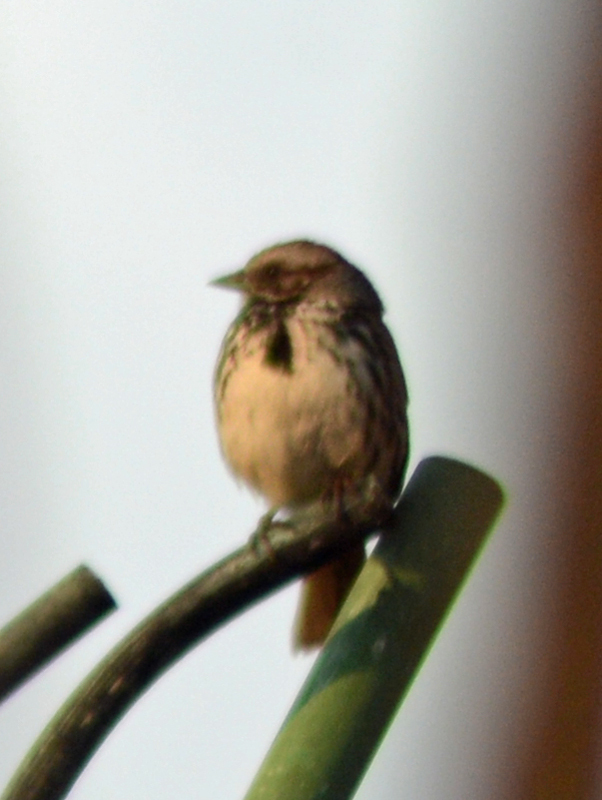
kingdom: Animalia
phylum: Chordata
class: Aves
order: Passeriformes
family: Passerellidae
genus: Melospiza
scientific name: Melospiza melodia
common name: Song sparrow
